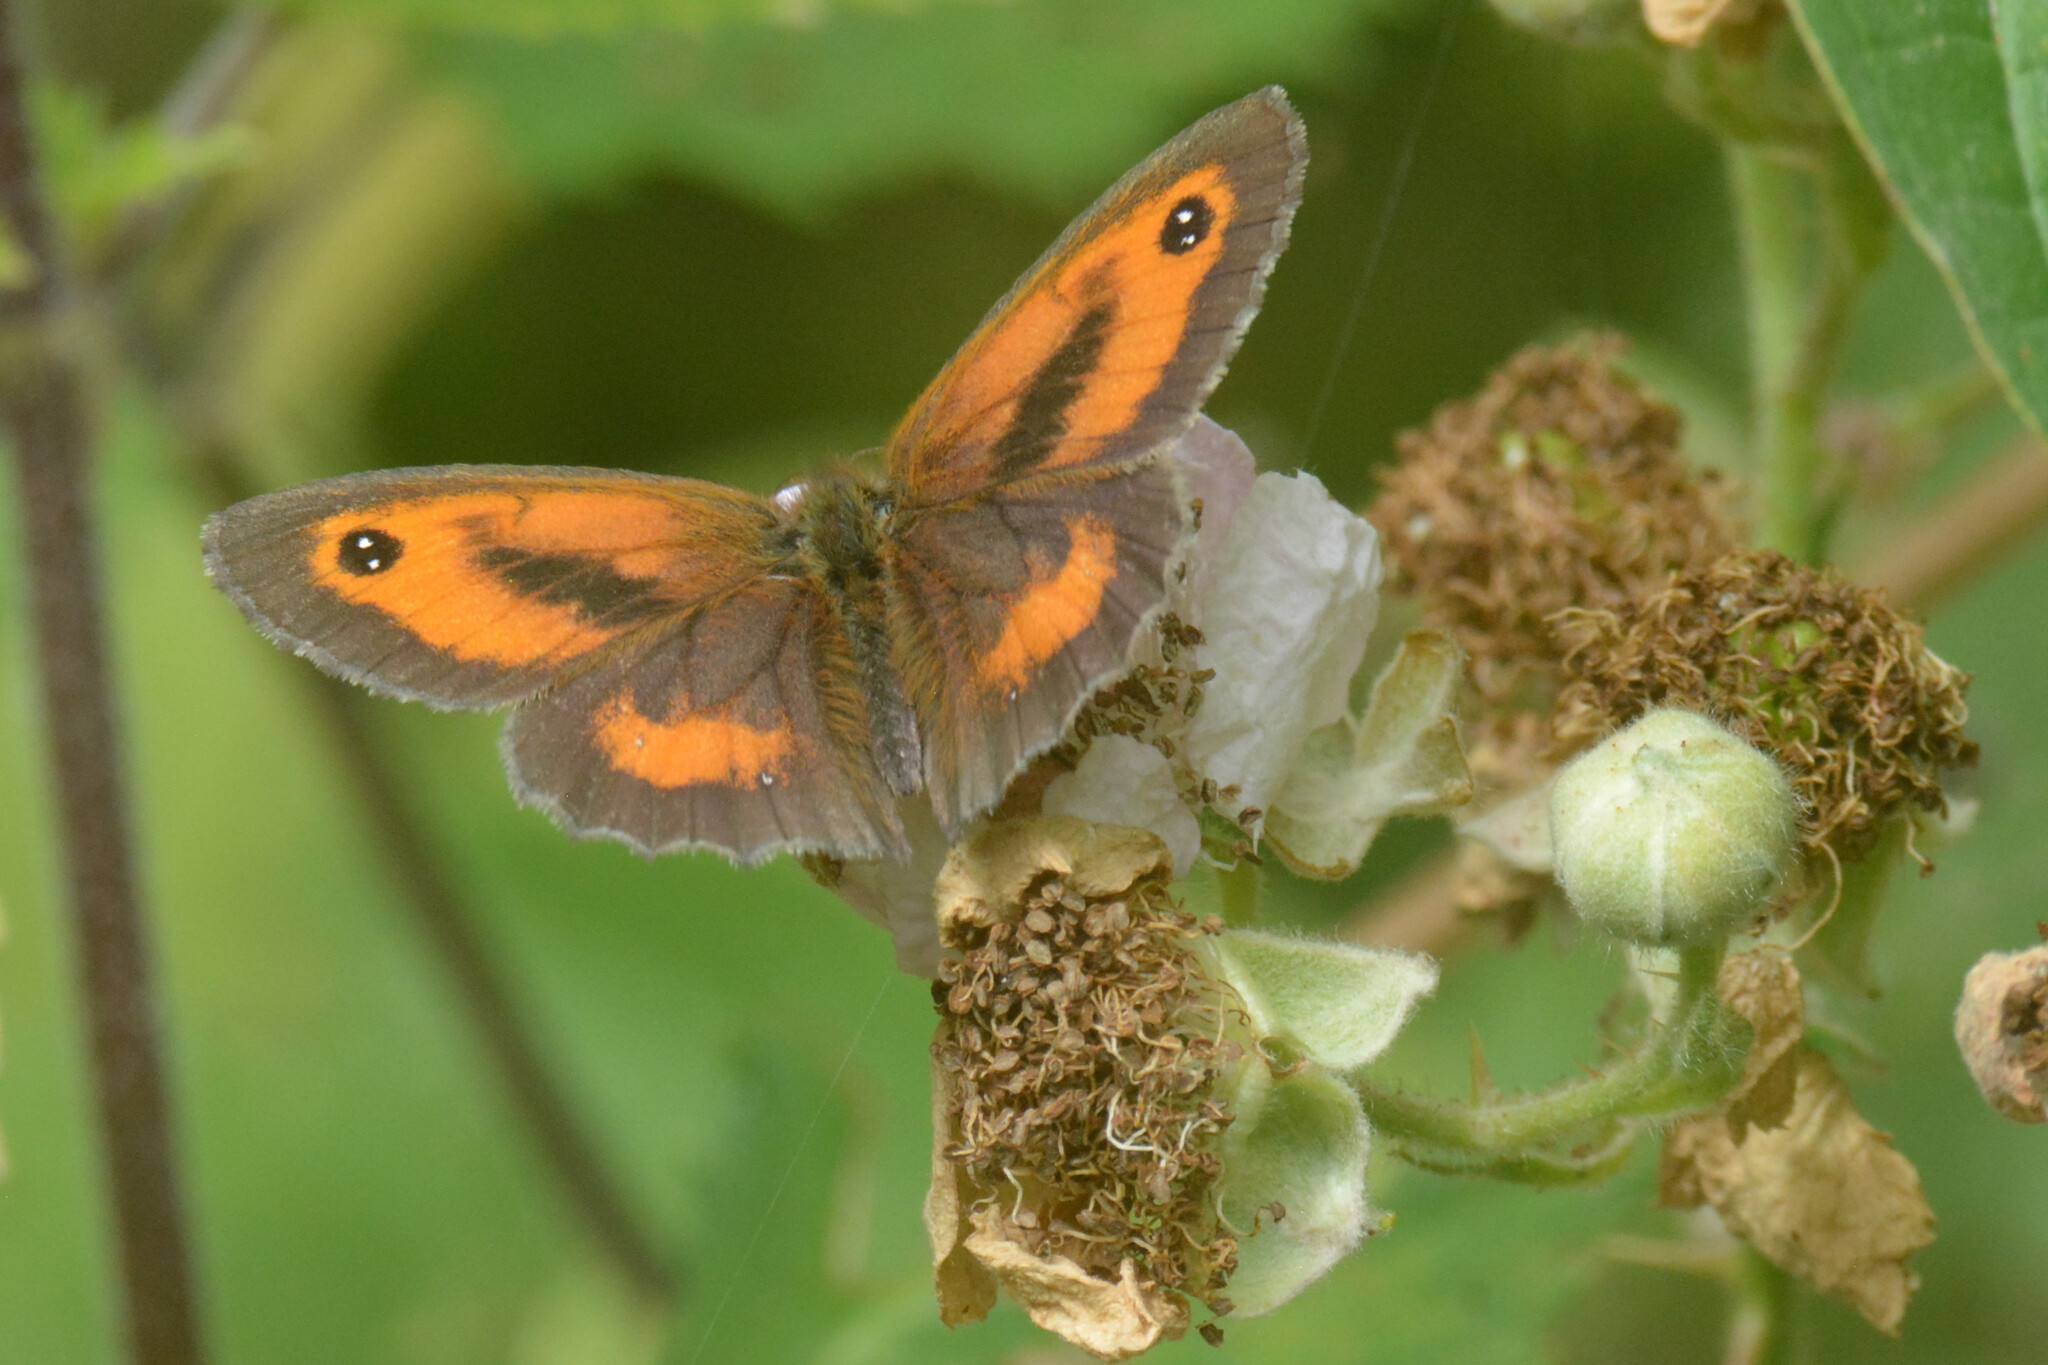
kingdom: Animalia
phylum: Arthropoda
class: Insecta
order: Lepidoptera
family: Nymphalidae
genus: Pyronia
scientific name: Pyronia tithonus
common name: Gatekeeper
